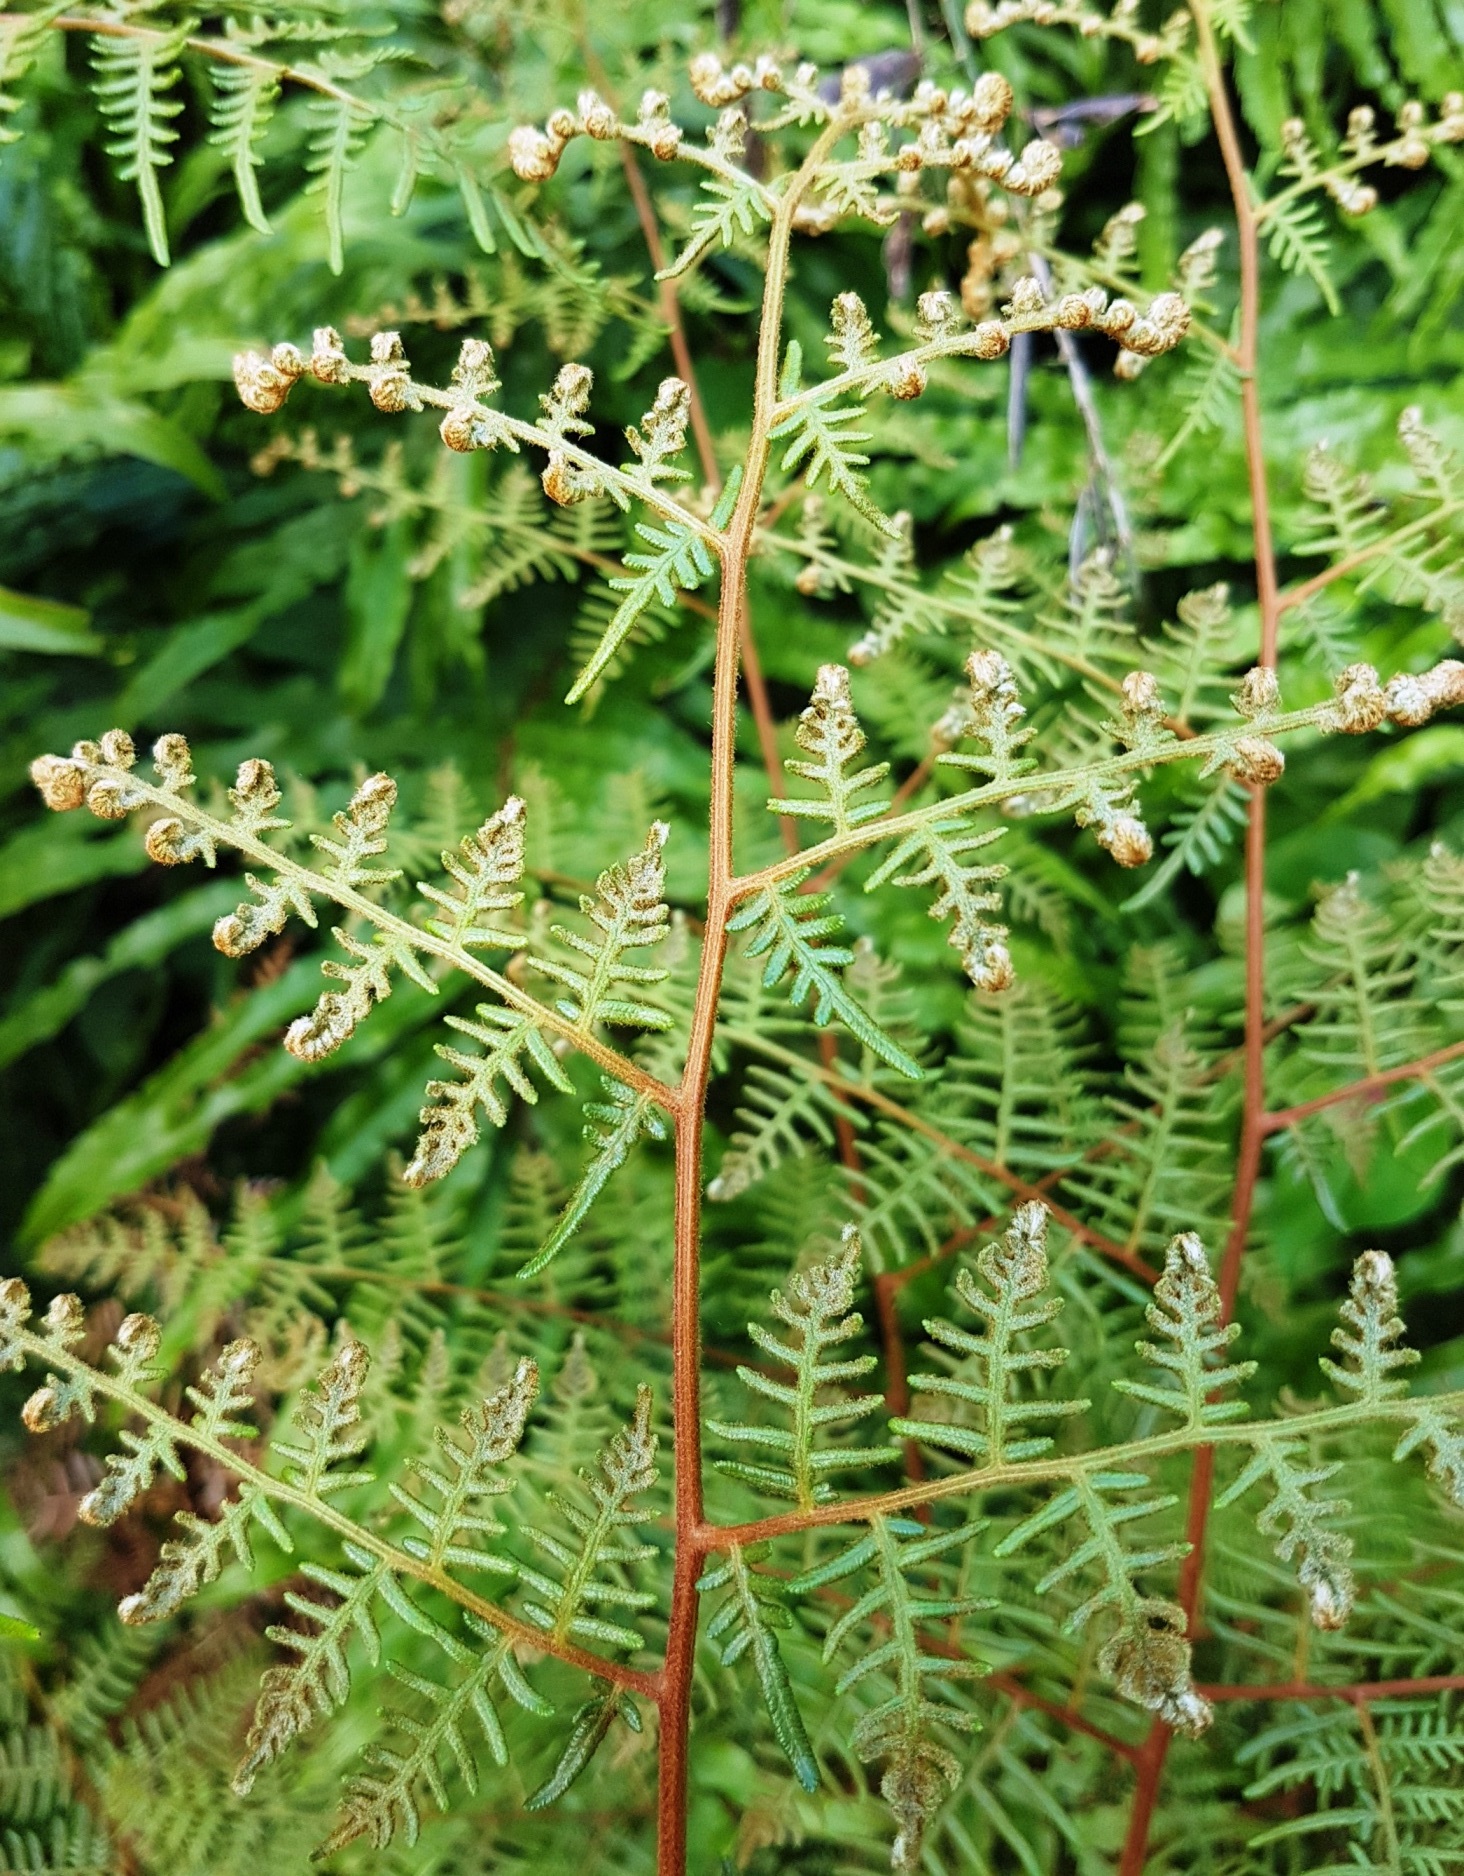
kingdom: Plantae
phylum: Tracheophyta
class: Polypodiopsida
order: Polypodiales
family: Dennstaedtiaceae
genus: Pteridium
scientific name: Pteridium esculentum
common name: Bracken fern
